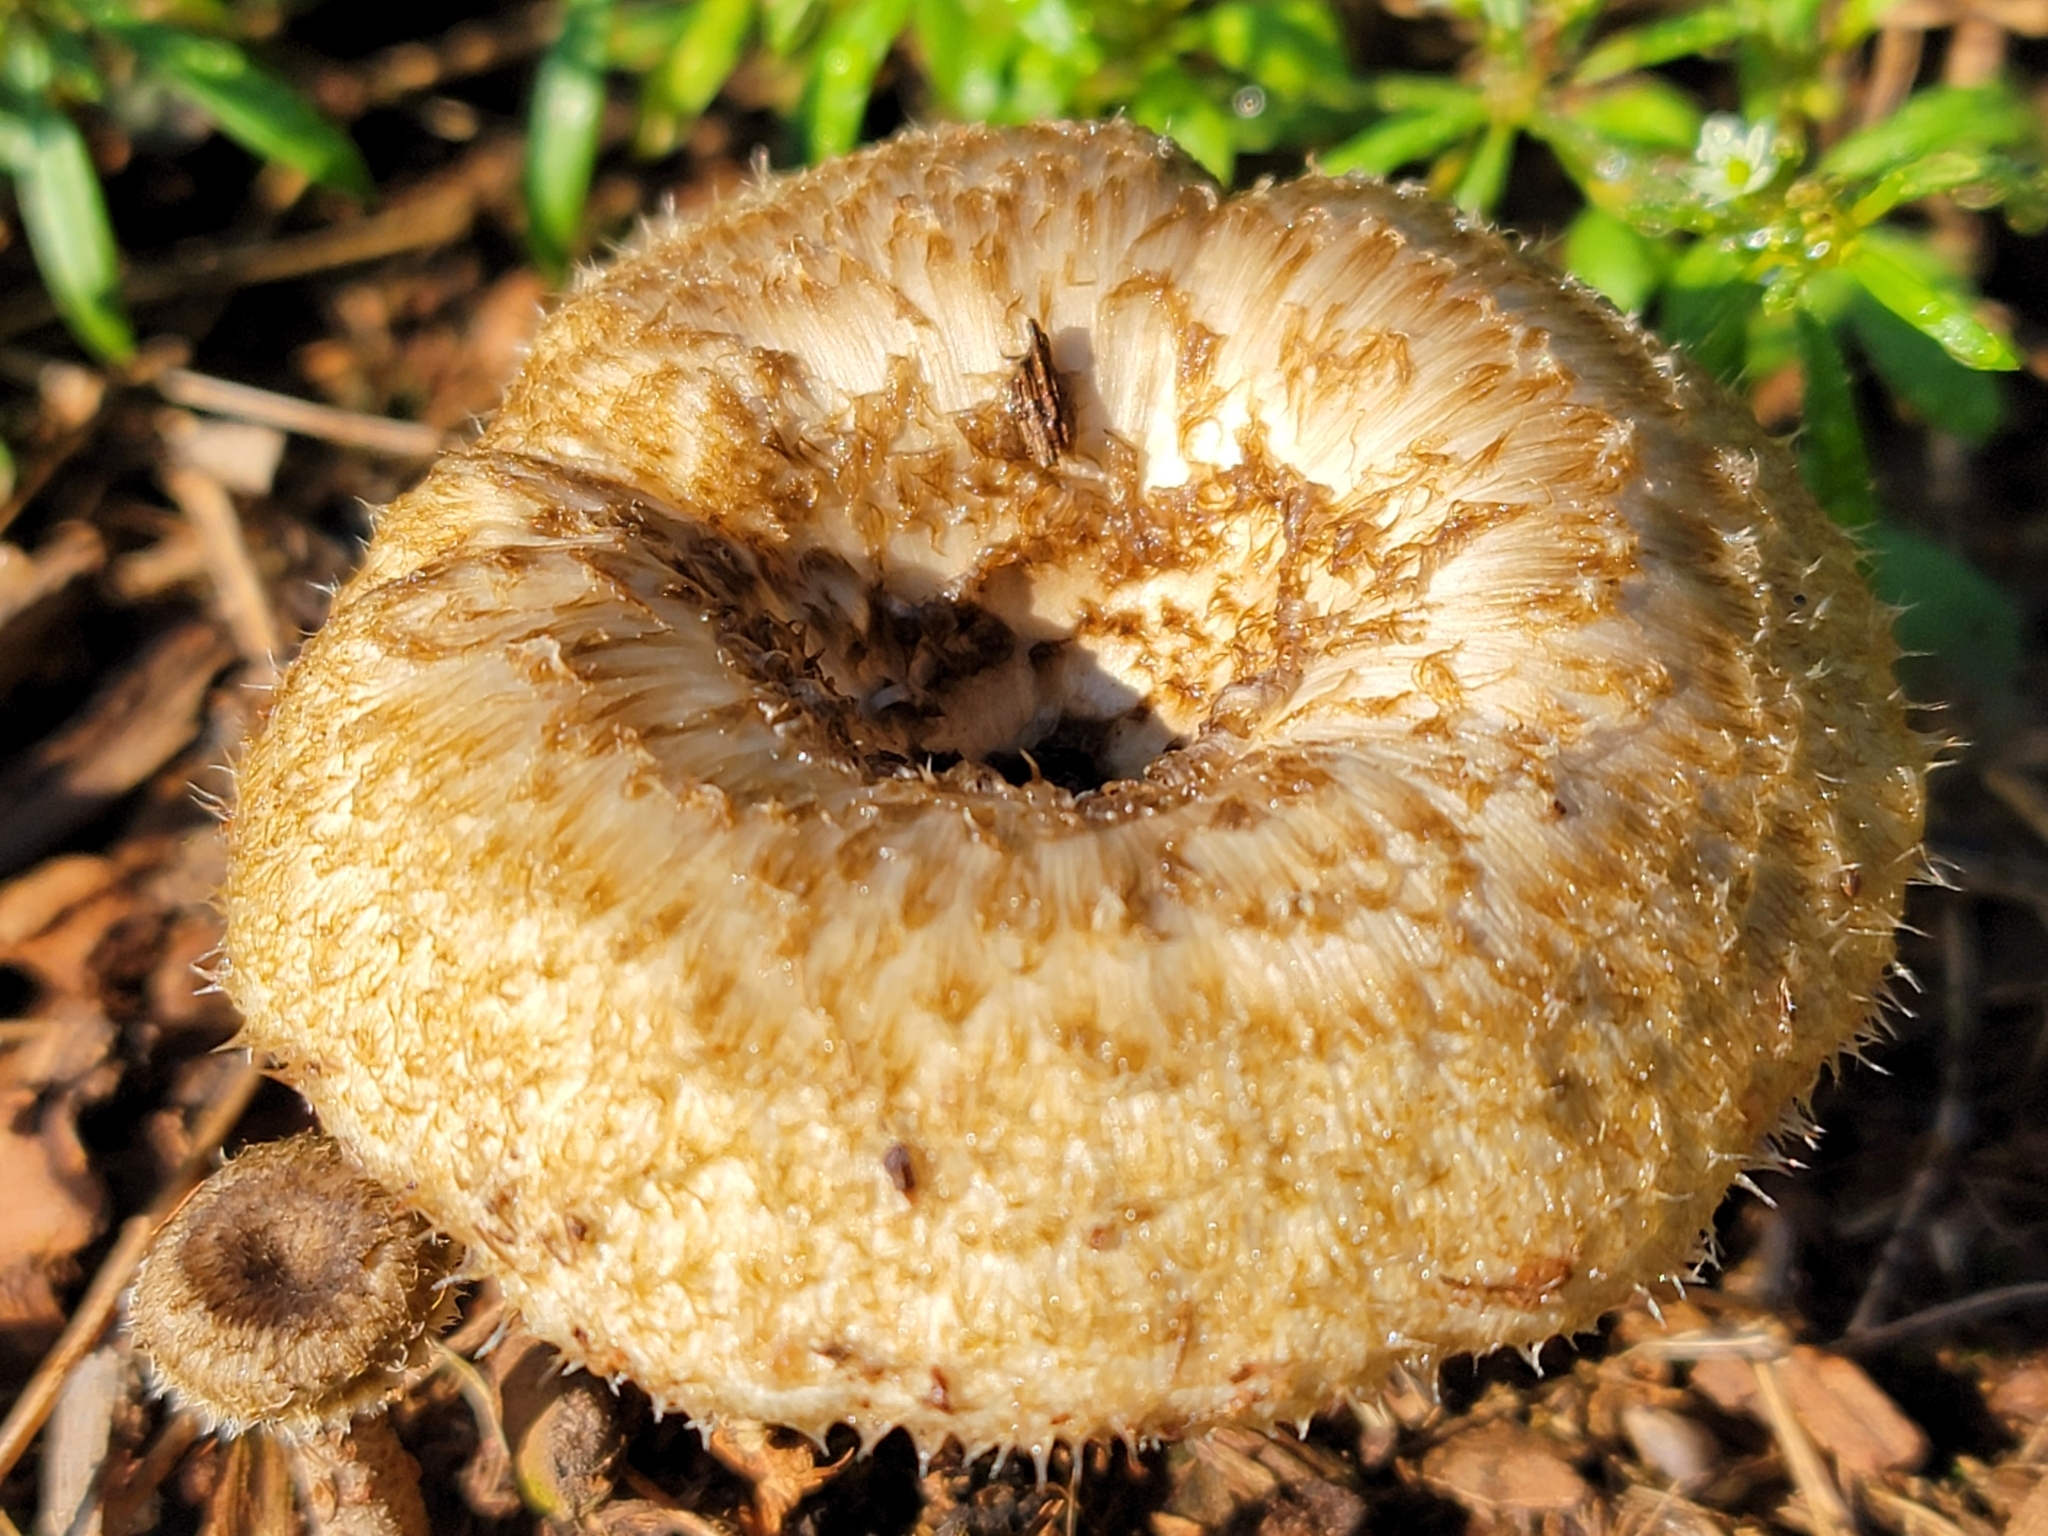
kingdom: Fungi
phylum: Basidiomycota
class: Agaricomycetes
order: Polyporales
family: Polyporaceae
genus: Lentinus
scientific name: Lentinus crinitus
